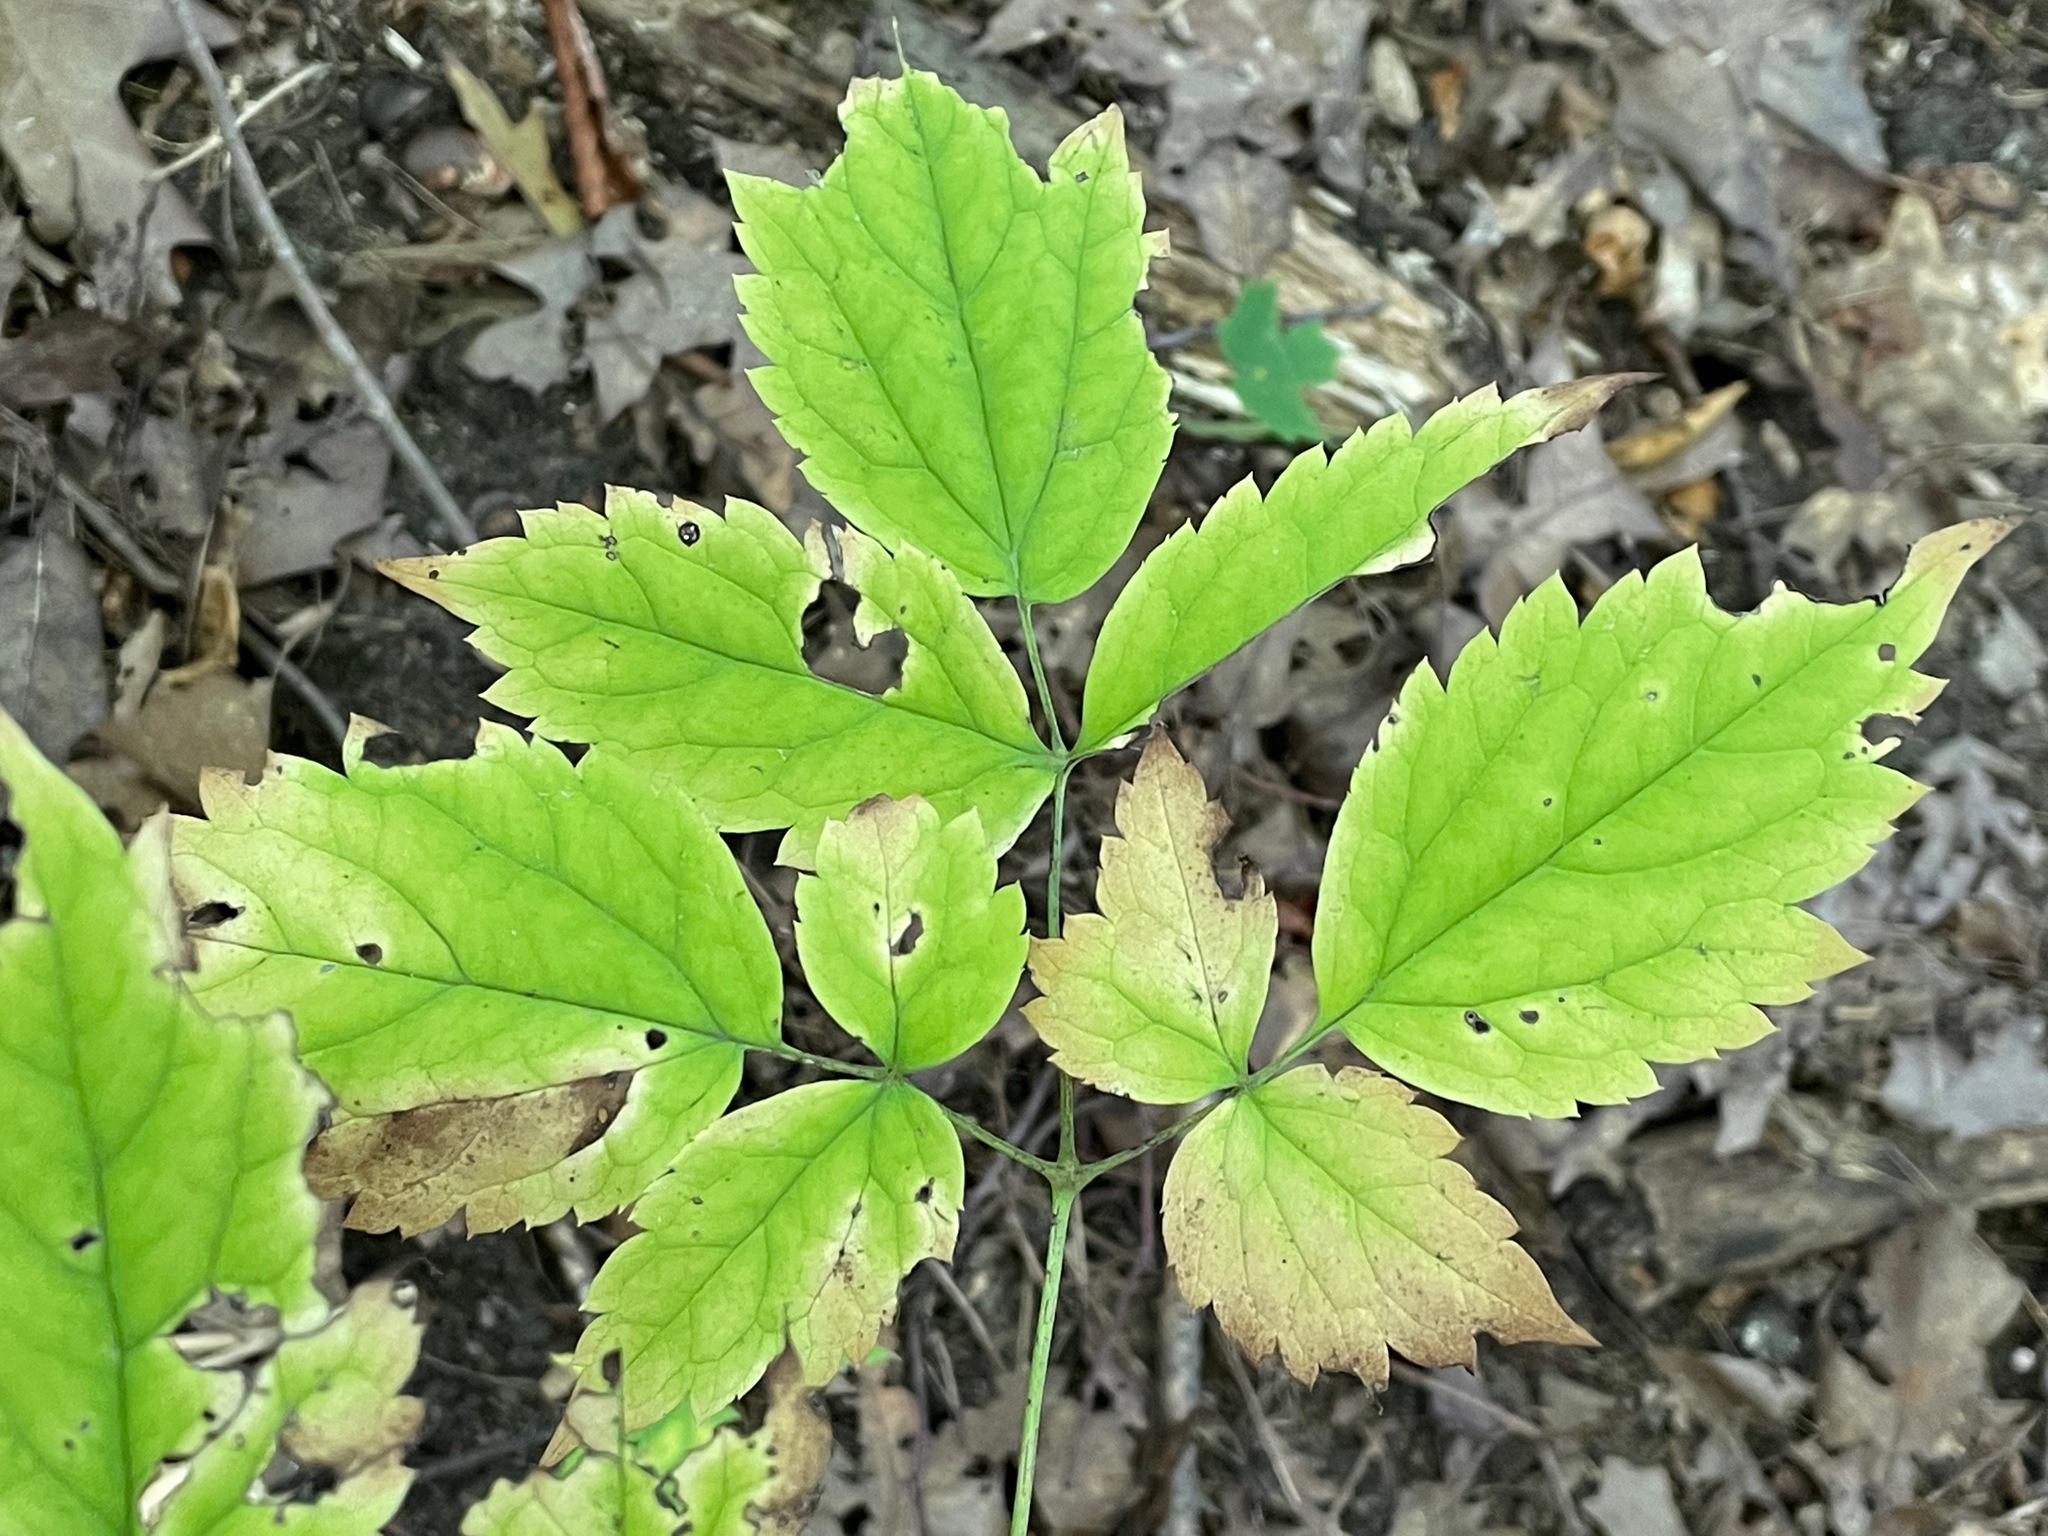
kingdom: Plantae
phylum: Tracheophyta
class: Magnoliopsida
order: Ranunculales
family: Ranunculaceae
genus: Actaea
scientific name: Actaea pachypoda
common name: Doll's-eyes
